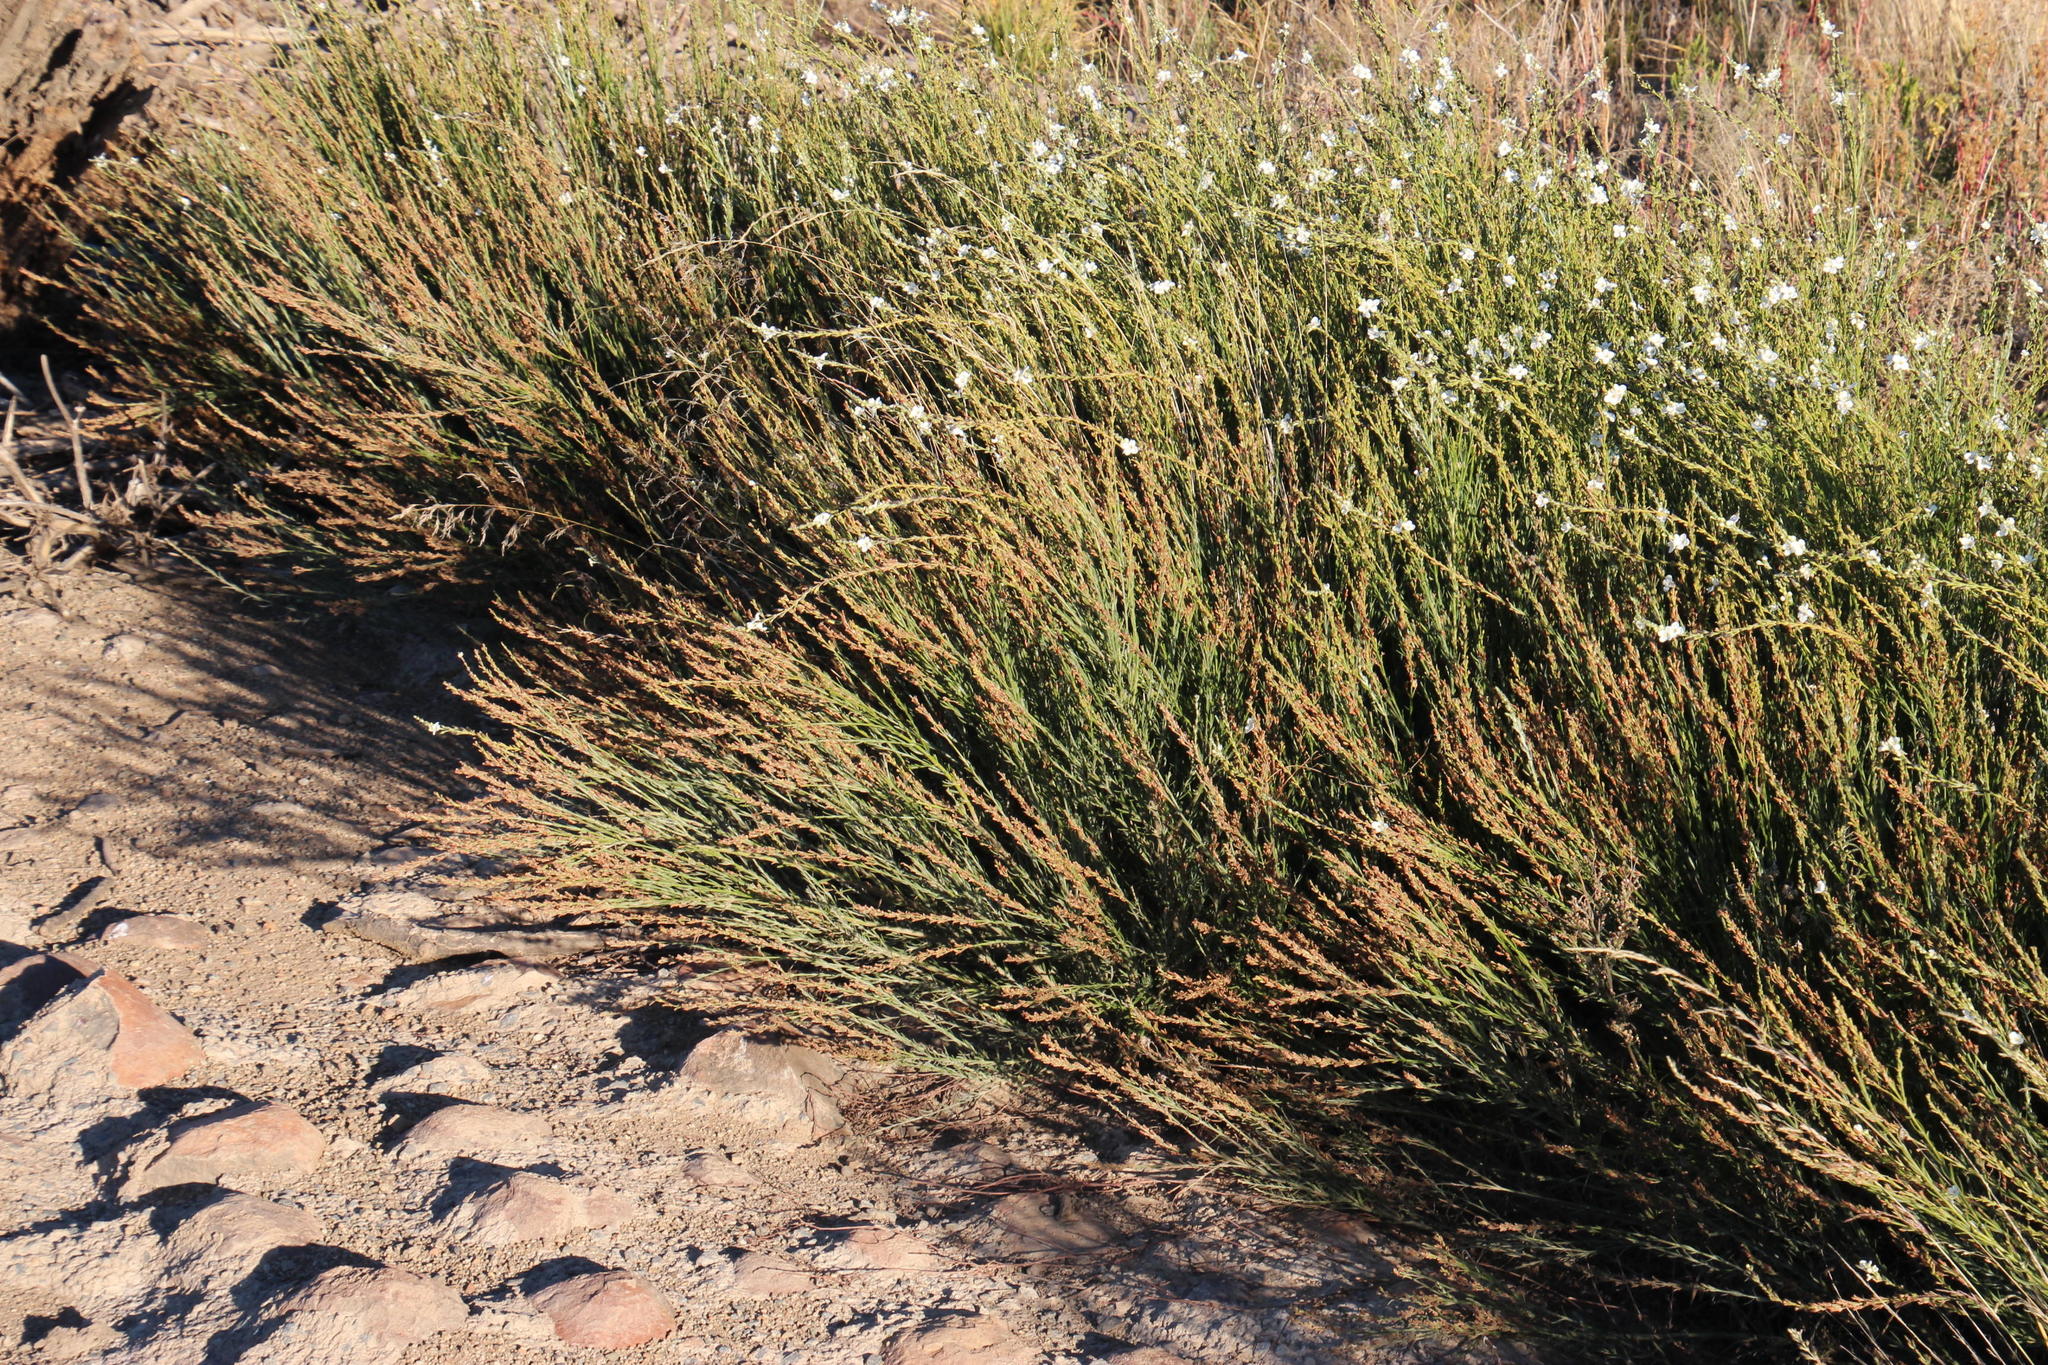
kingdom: Plantae
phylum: Tracheophyta
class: Magnoliopsida
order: Lamiales
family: Scrophulariaceae
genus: Buddleja
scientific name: Buddleja virgata
